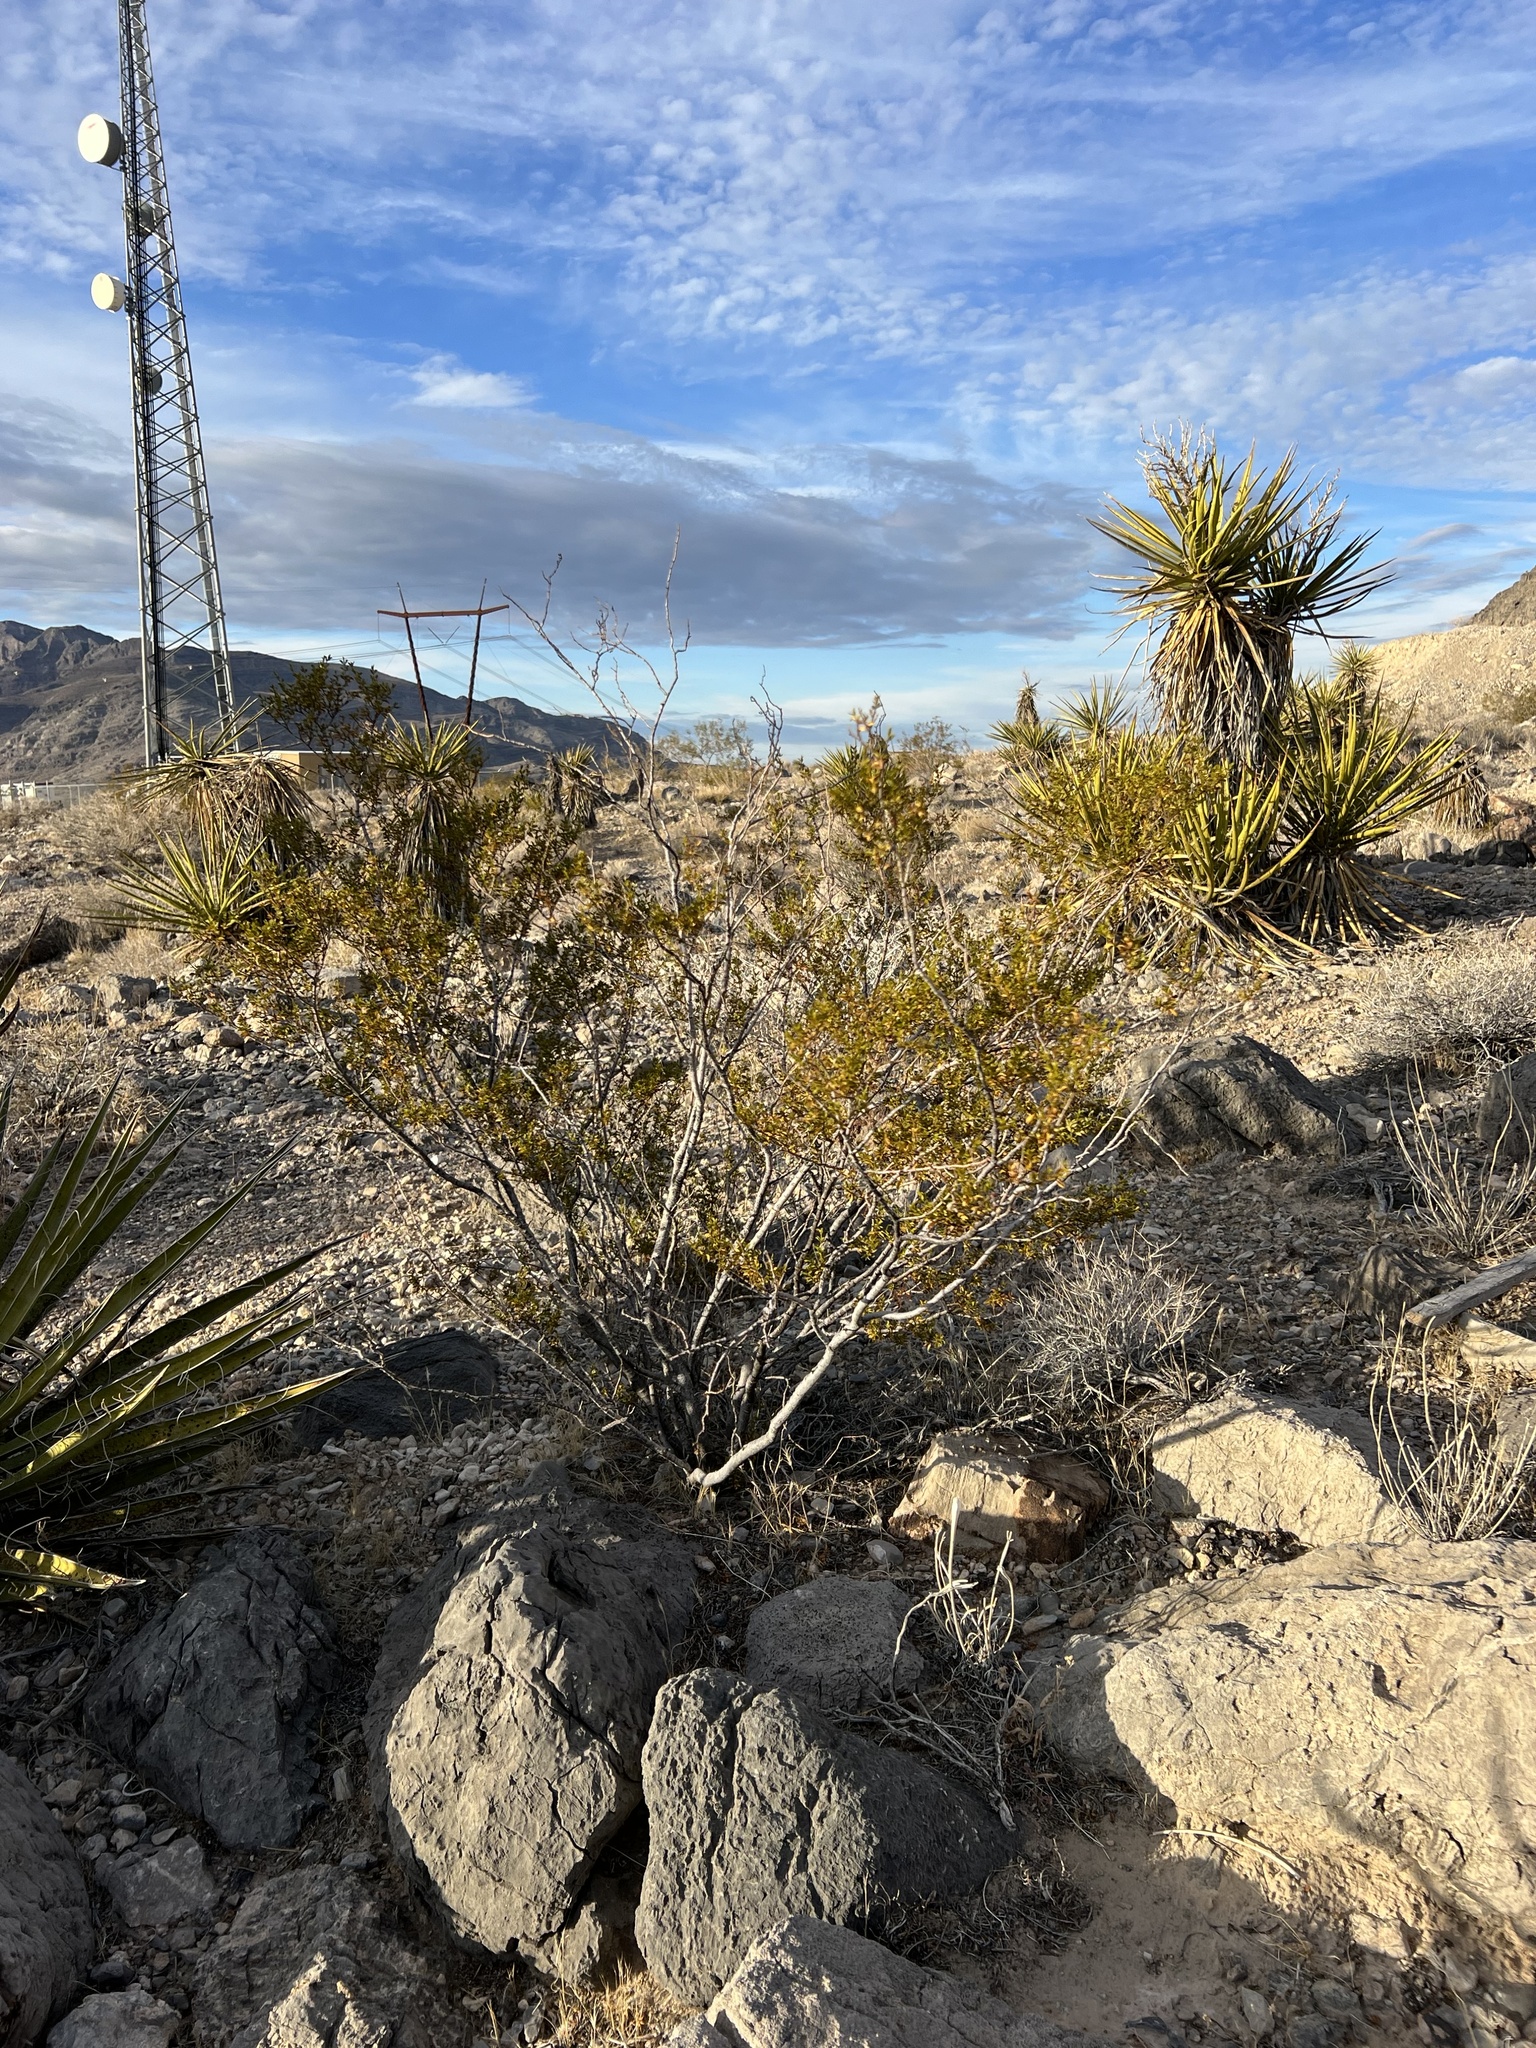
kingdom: Plantae
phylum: Tracheophyta
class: Magnoliopsida
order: Zygophyllales
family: Zygophyllaceae
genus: Larrea
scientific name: Larrea tridentata
